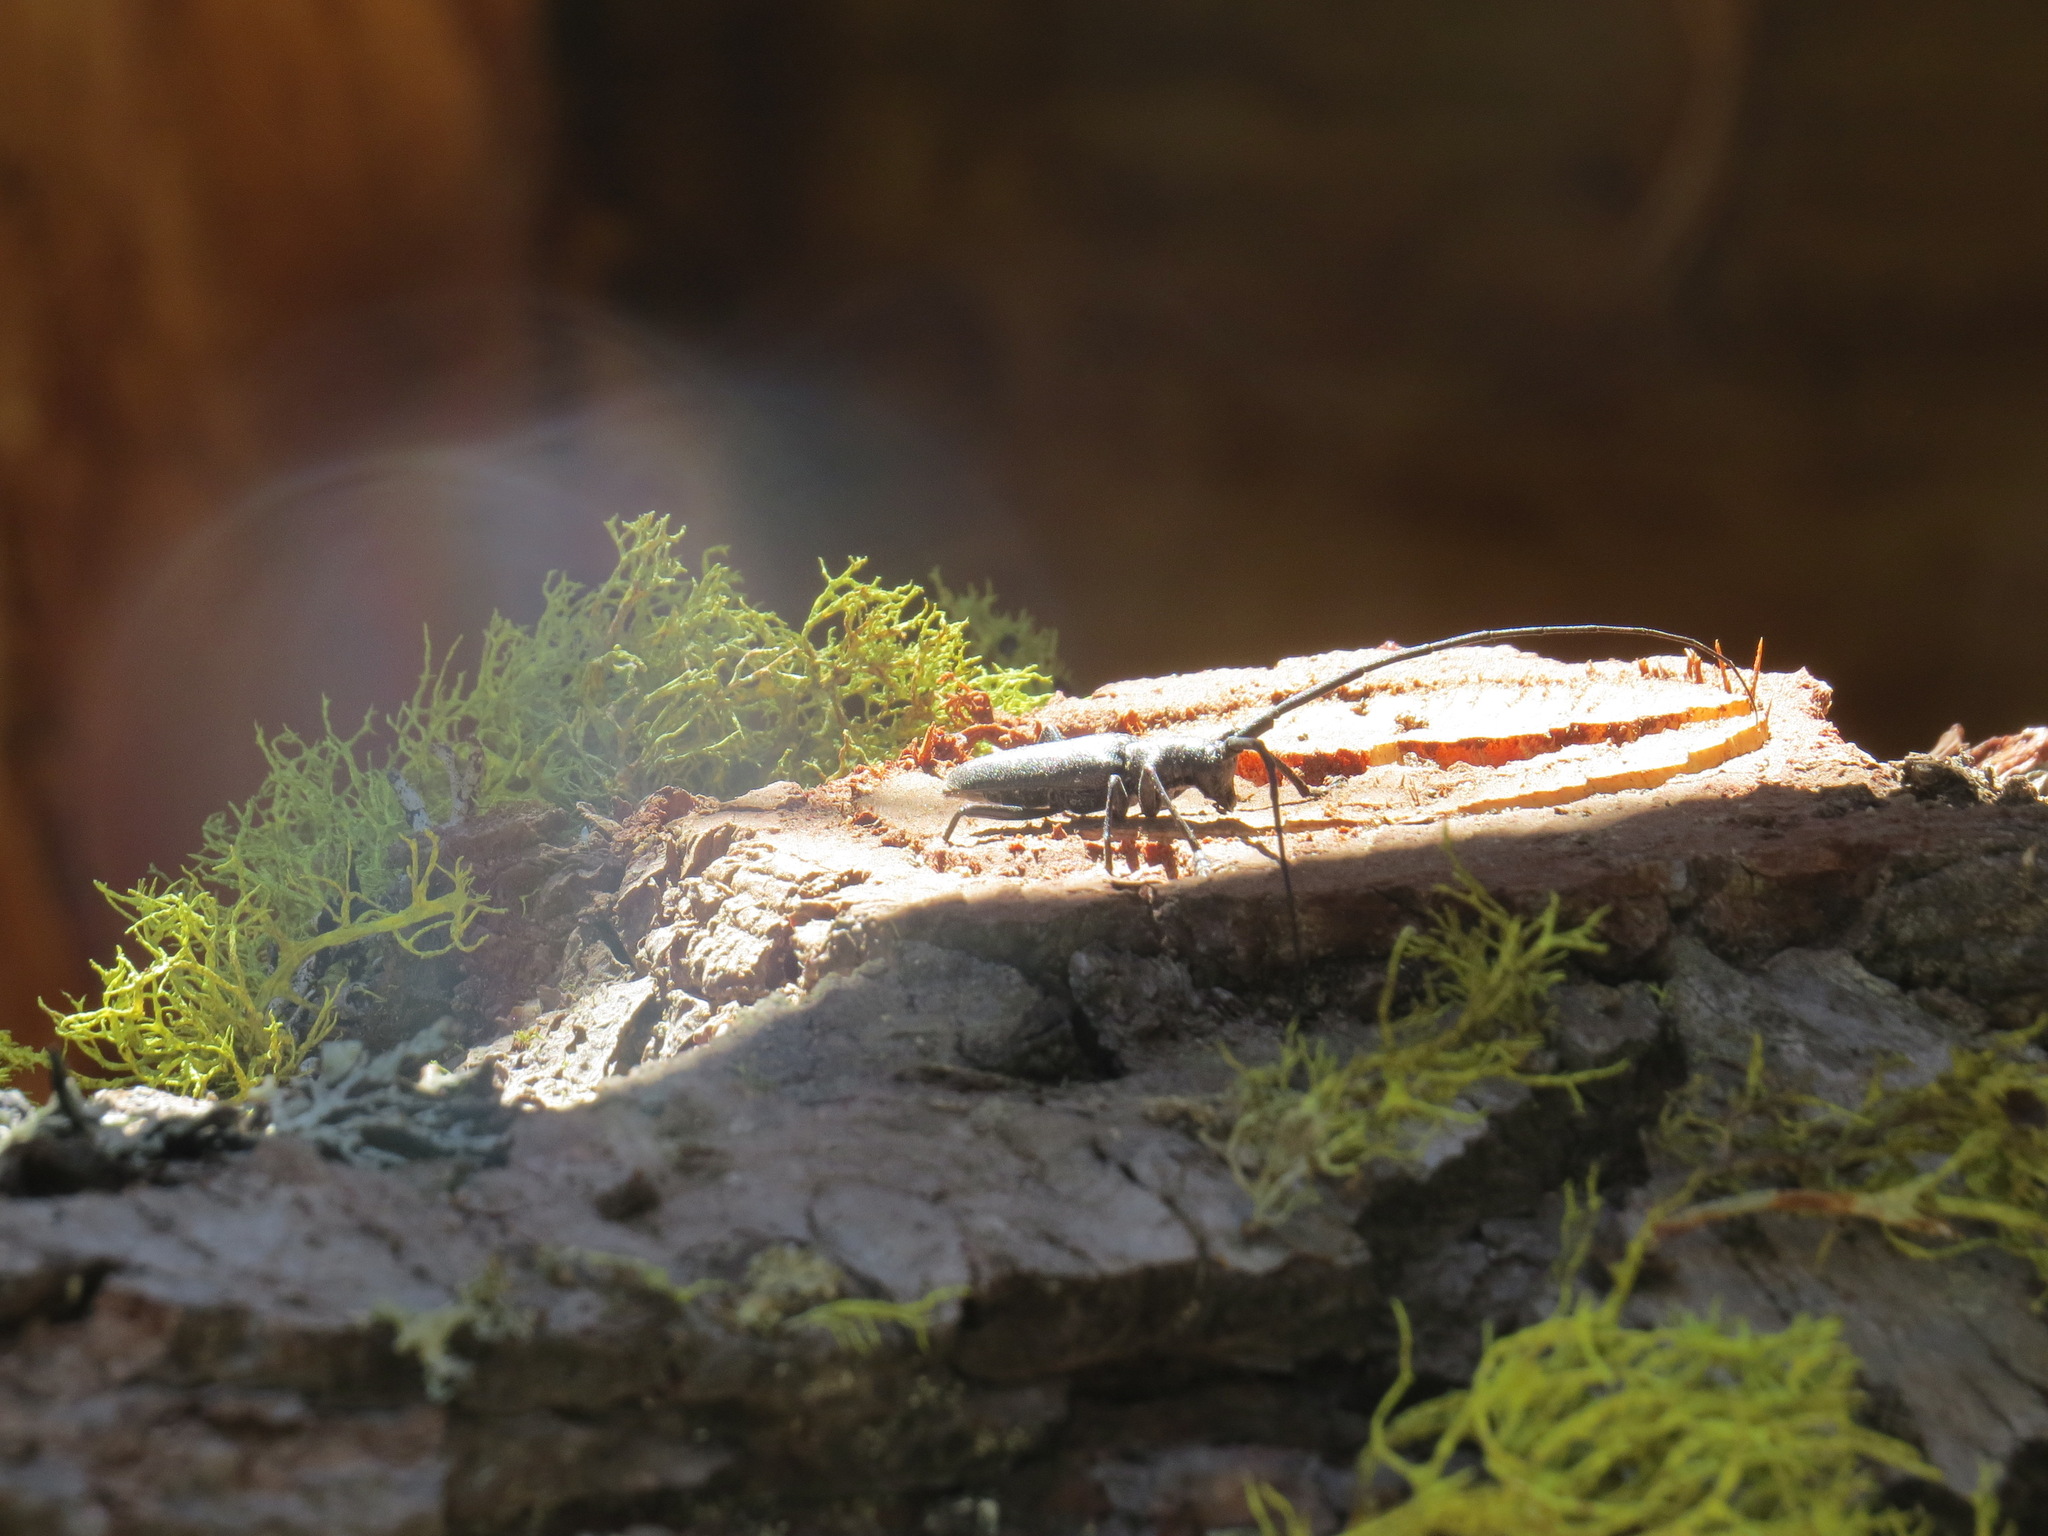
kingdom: Animalia
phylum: Arthropoda
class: Insecta
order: Coleoptera
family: Cerambycidae
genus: Monochamus
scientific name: Monochamus scutellatus
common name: White-spotted sawyer beetle
